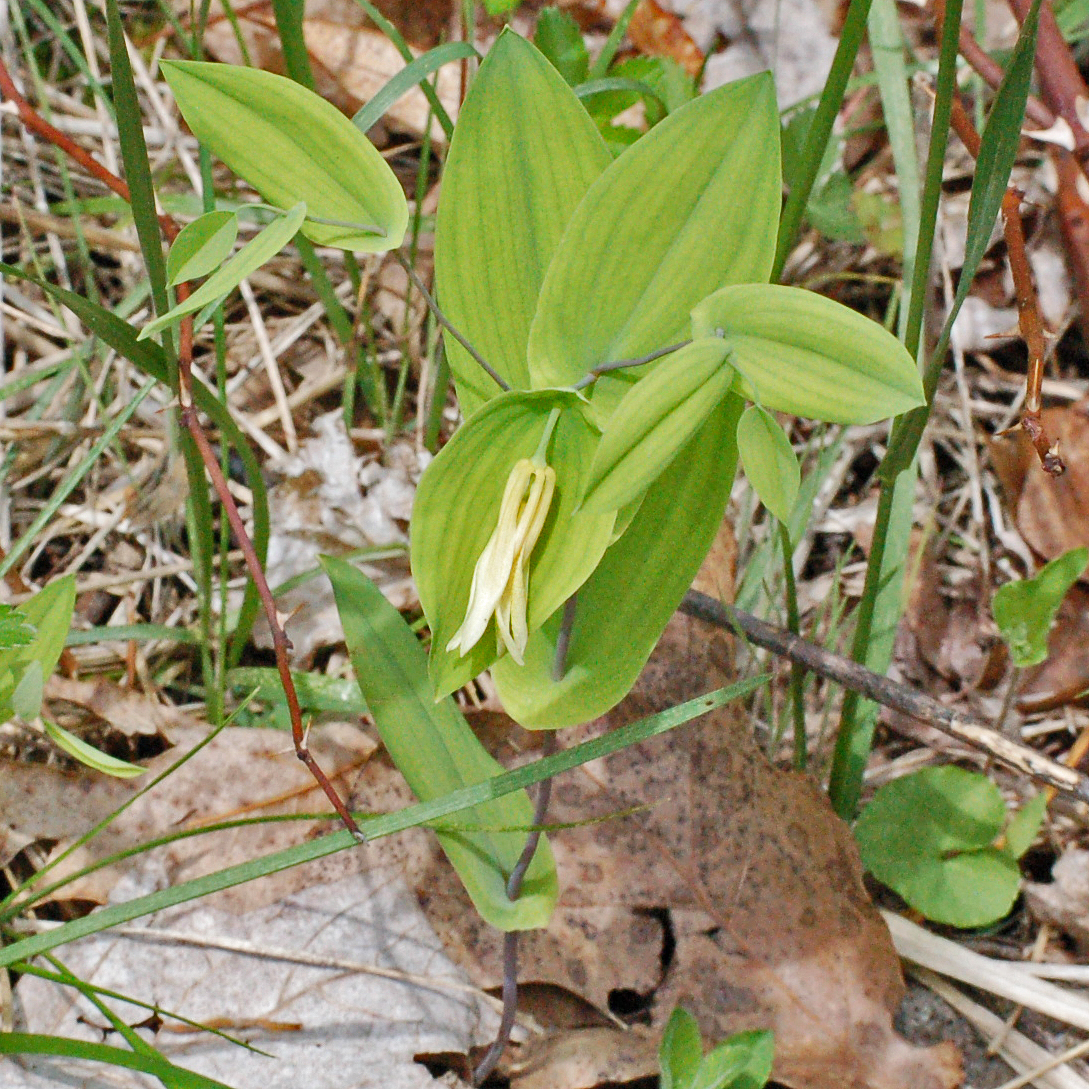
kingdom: Plantae
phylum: Tracheophyta
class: Liliopsida
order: Liliales
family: Colchicaceae
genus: Uvularia
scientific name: Uvularia perfoliata
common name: Perfoliate bellwort
